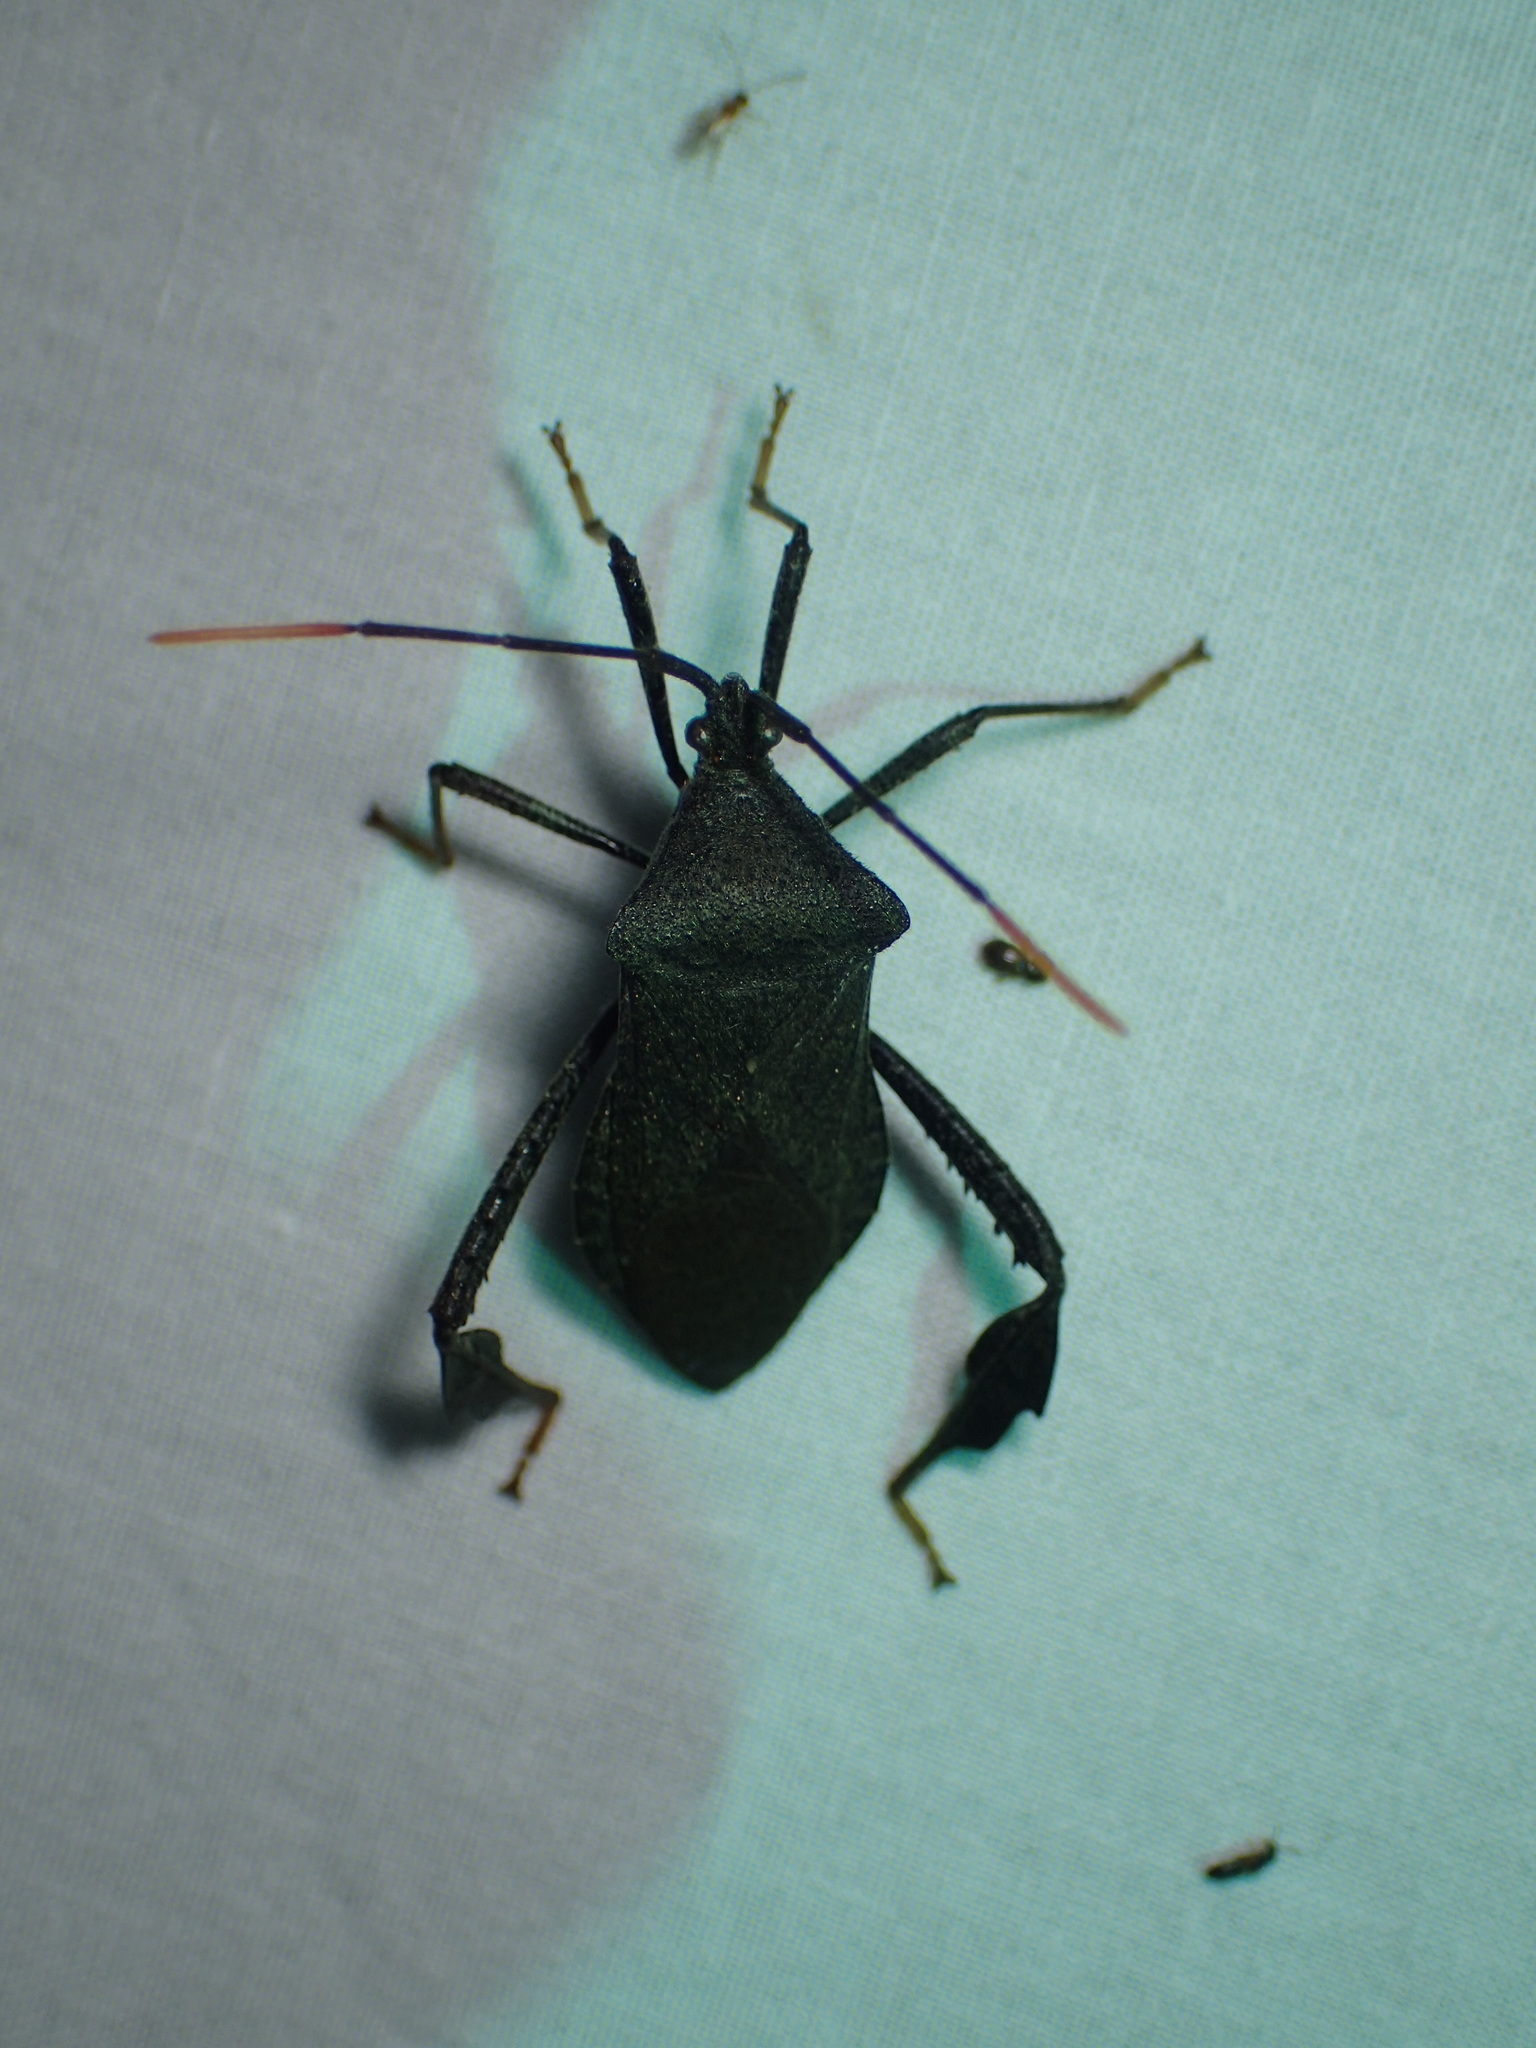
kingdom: Animalia
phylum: Arthropoda
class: Insecta
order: Hemiptera
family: Coreidae
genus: Acanthocephala
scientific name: Acanthocephala terminalis
